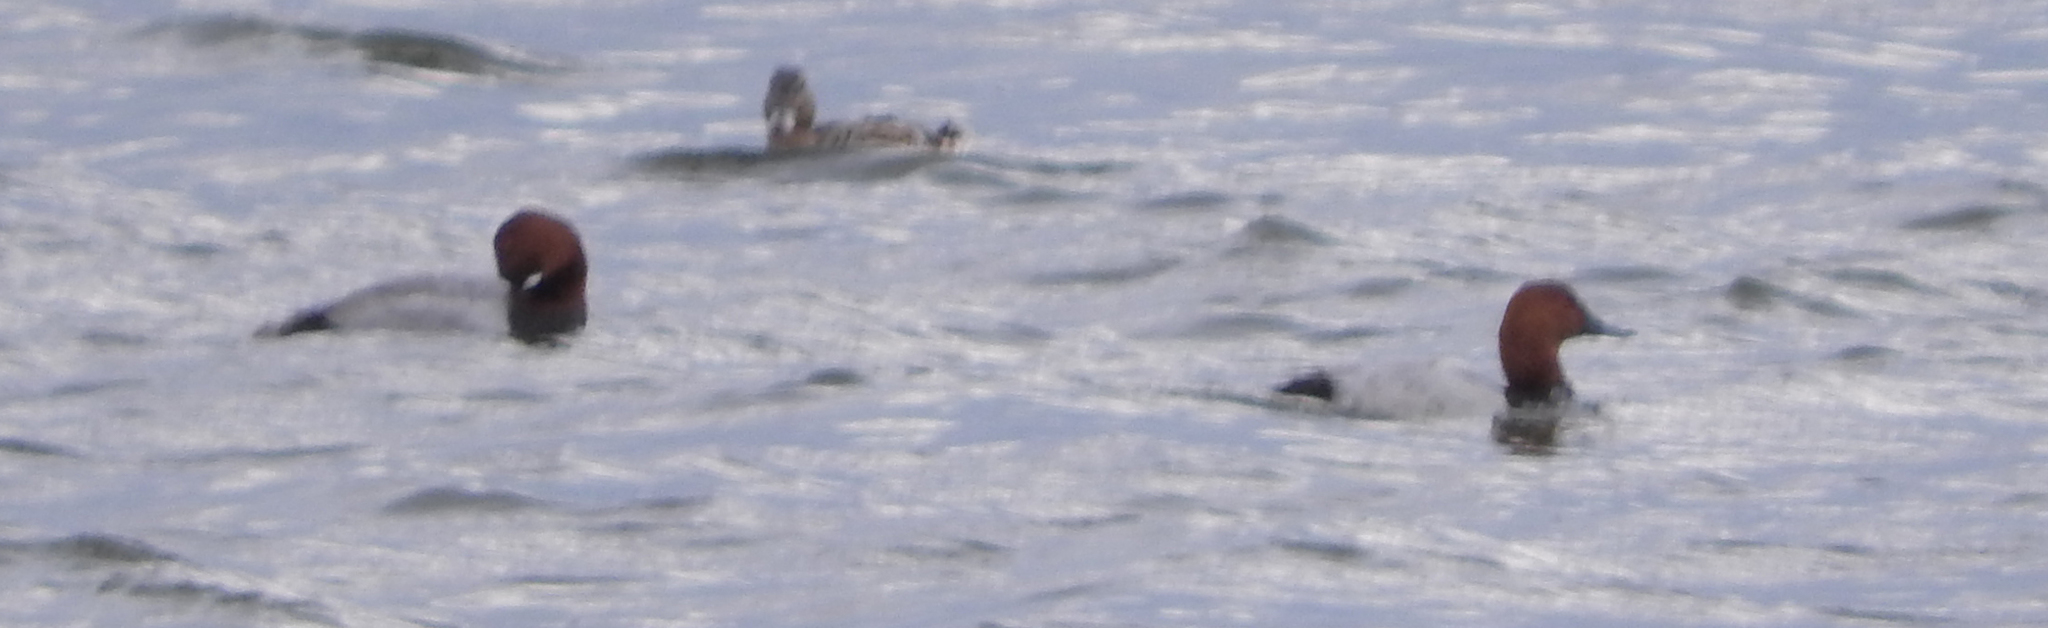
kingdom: Animalia
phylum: Chordata
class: Aves
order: Anseriformes
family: Anatidae
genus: Aythya
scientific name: Aythya ferina
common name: Common pochard
